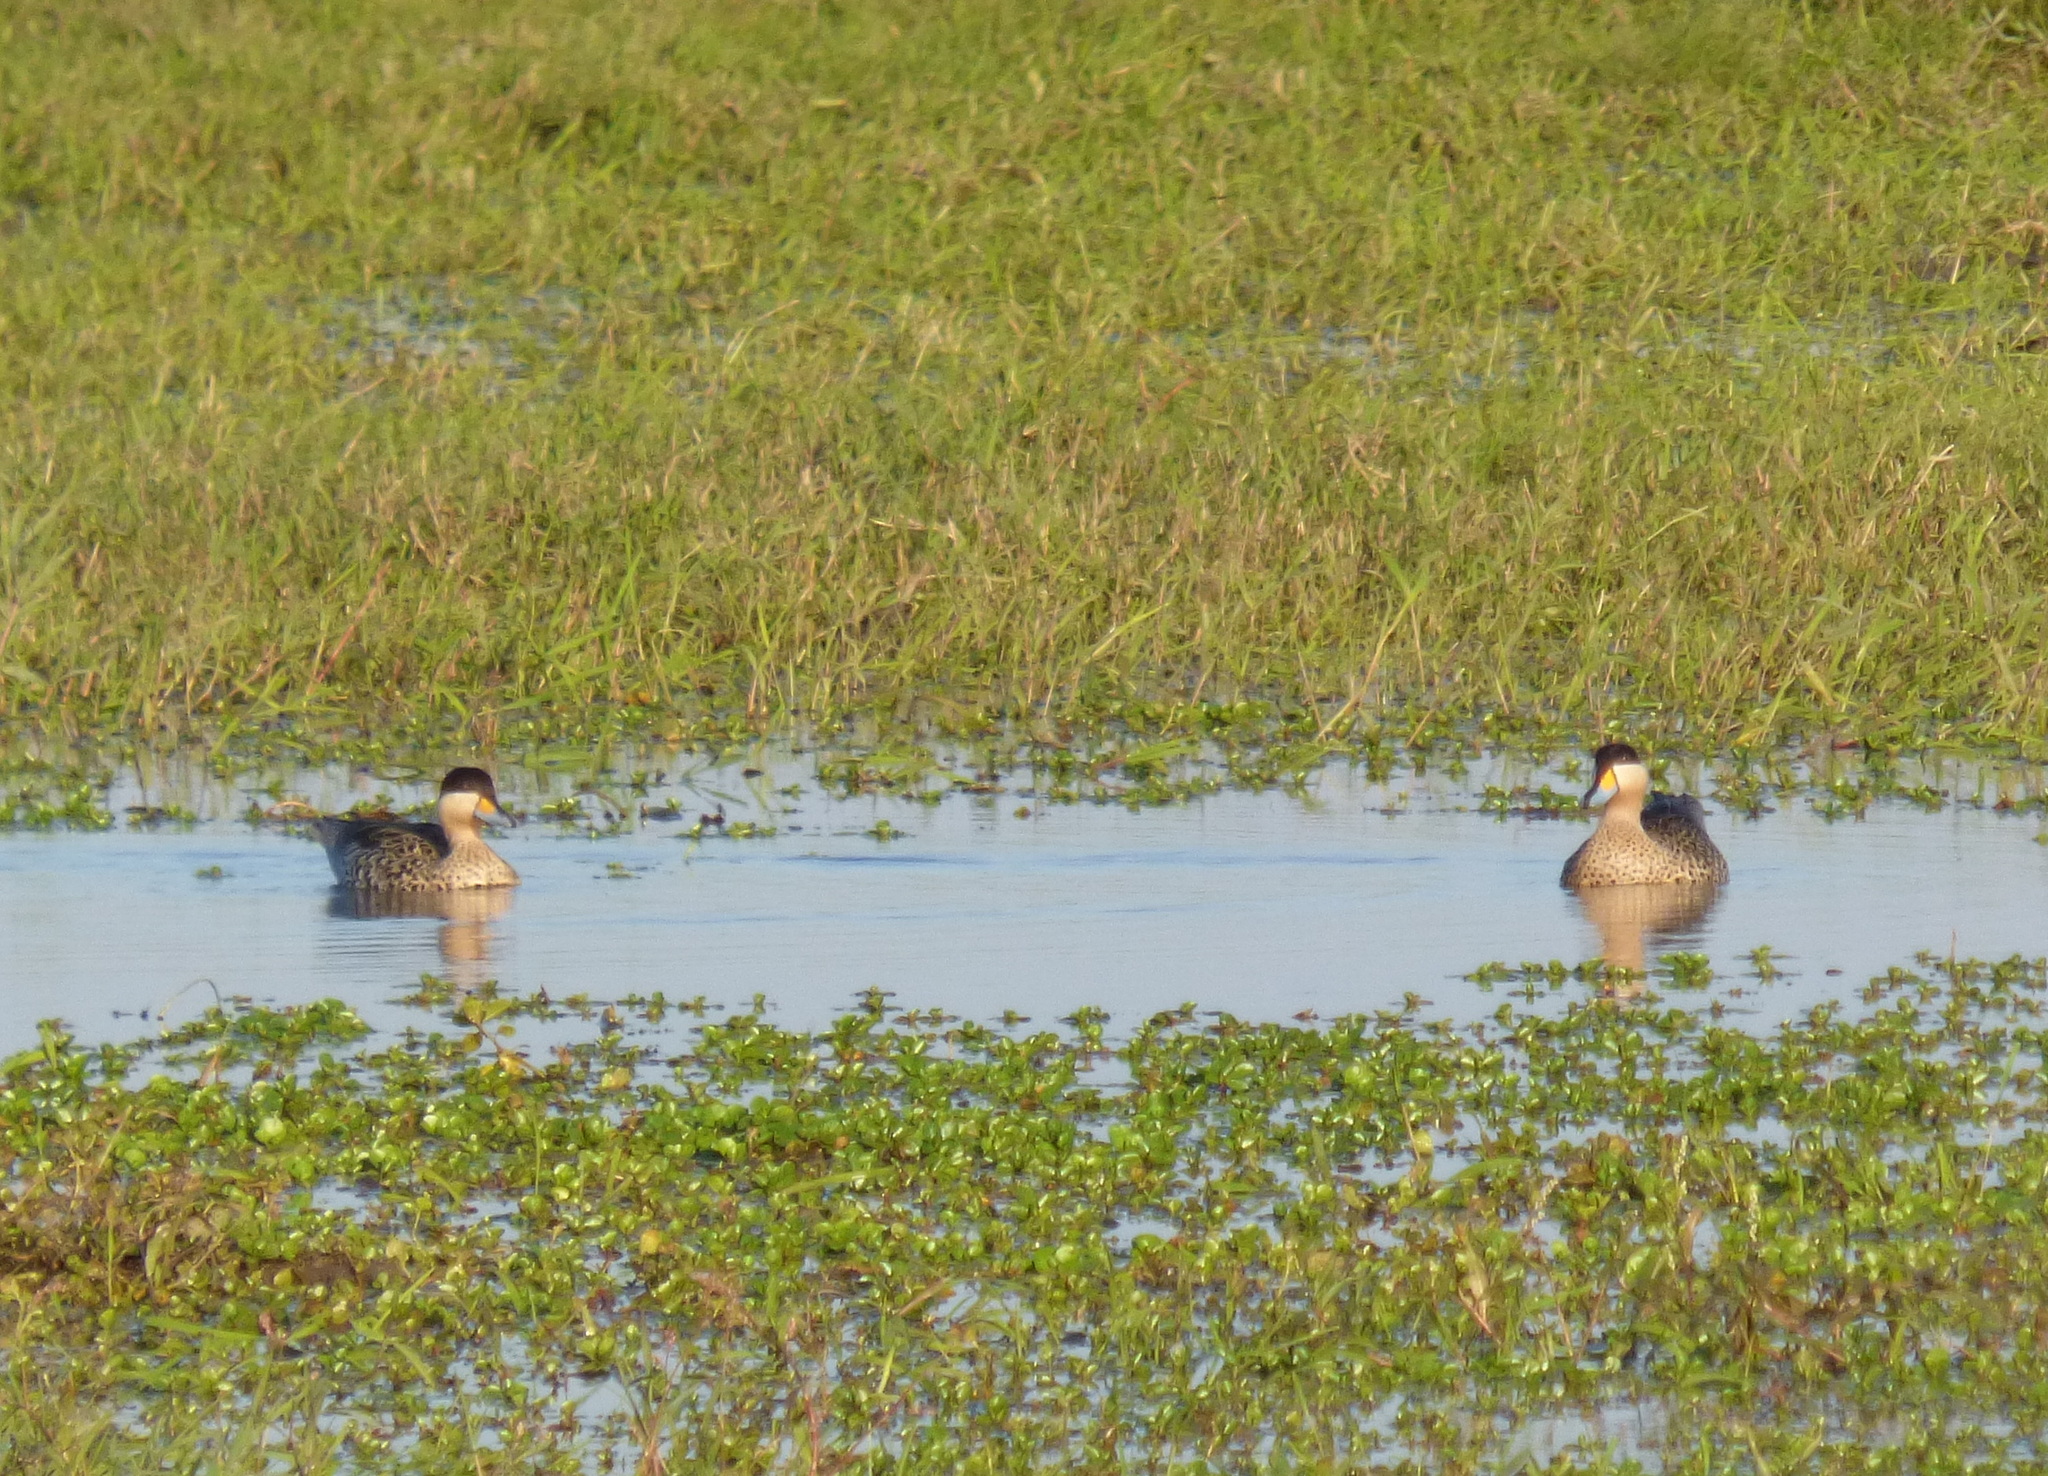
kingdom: Animalia
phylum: Chordata
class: Aves
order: Anseriformes
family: Anatidae
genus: Spatula
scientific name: Spatula versicolor
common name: Silver teal
